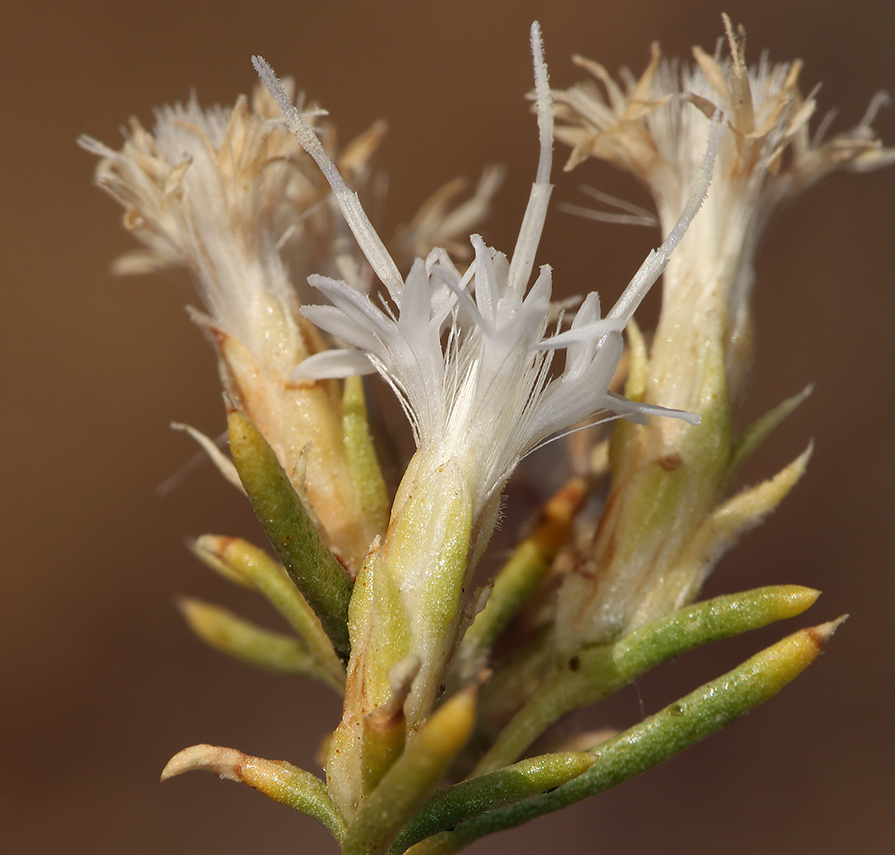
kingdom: Plantae
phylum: Tracheophyta
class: Magnoliopsida
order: Asterales
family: Asteraceae
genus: Ericameria
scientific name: Ericameria albida
